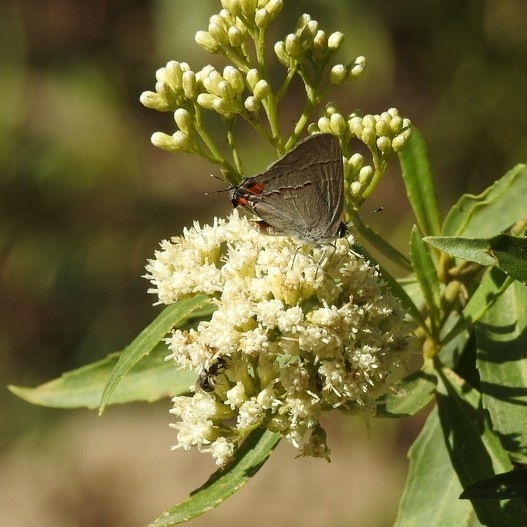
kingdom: Animalia
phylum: Arthropoda
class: Insecta
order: Lepidoptera
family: Lycaenidae
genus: Strymon
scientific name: Strymon melinus
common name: Gray hairstreak
